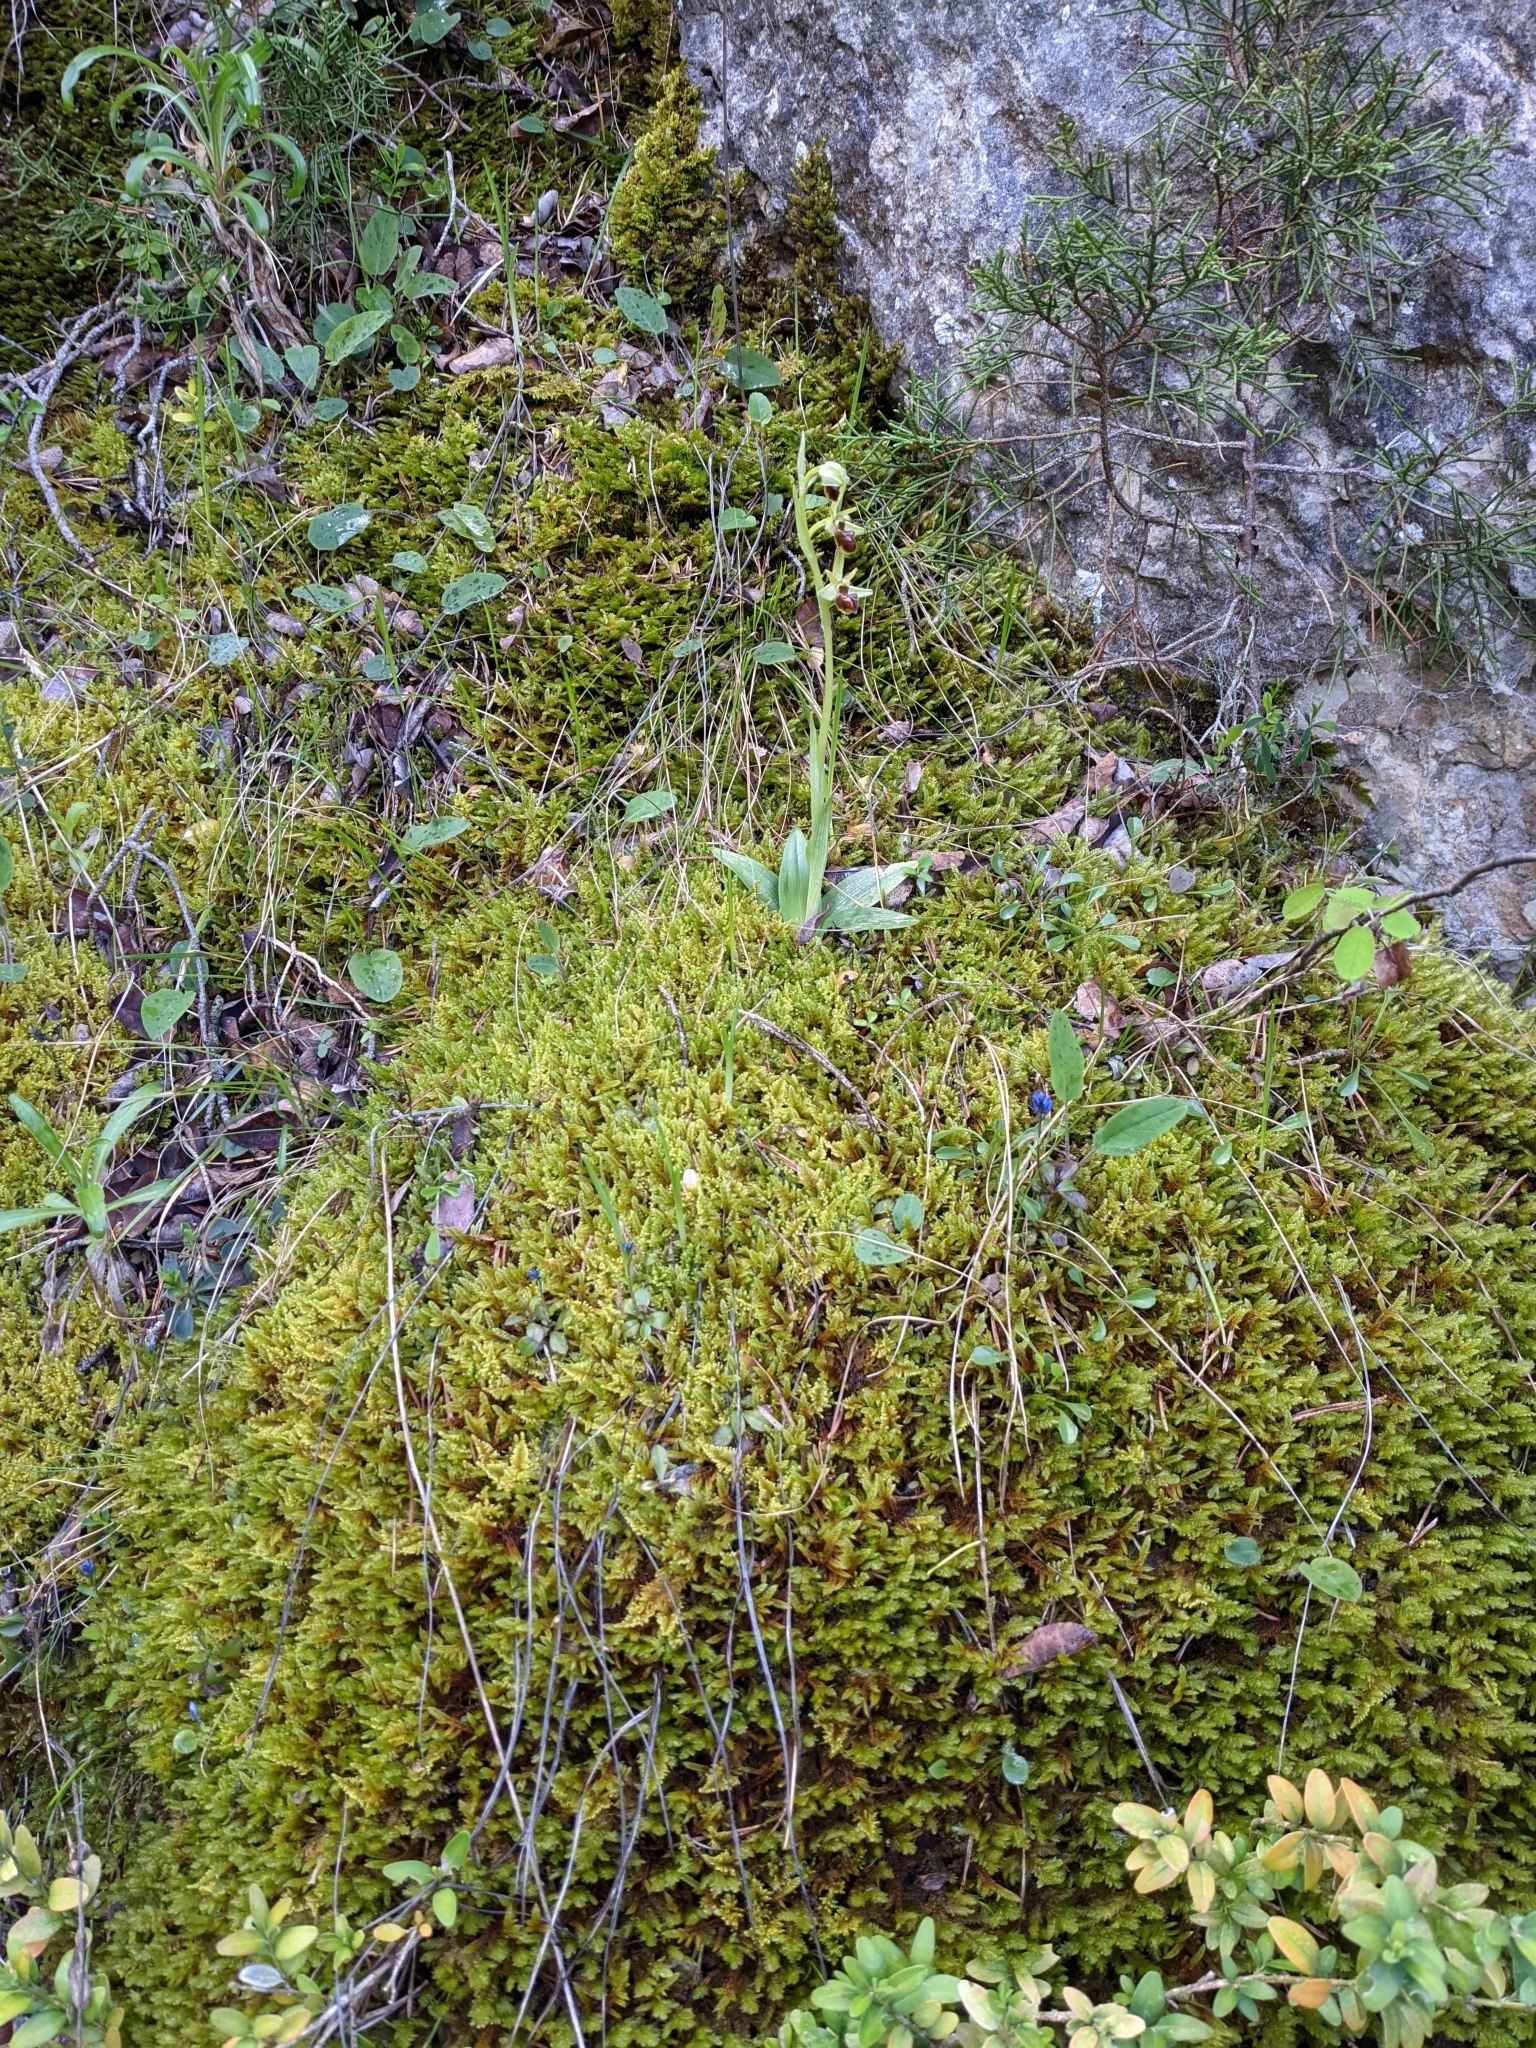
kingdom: Plantae
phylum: Tracheophyta
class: Liliopsida
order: Asparagales
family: Orchidaceae
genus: Ophrys
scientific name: Ophrys sphegodes
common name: Early spider-orchid
